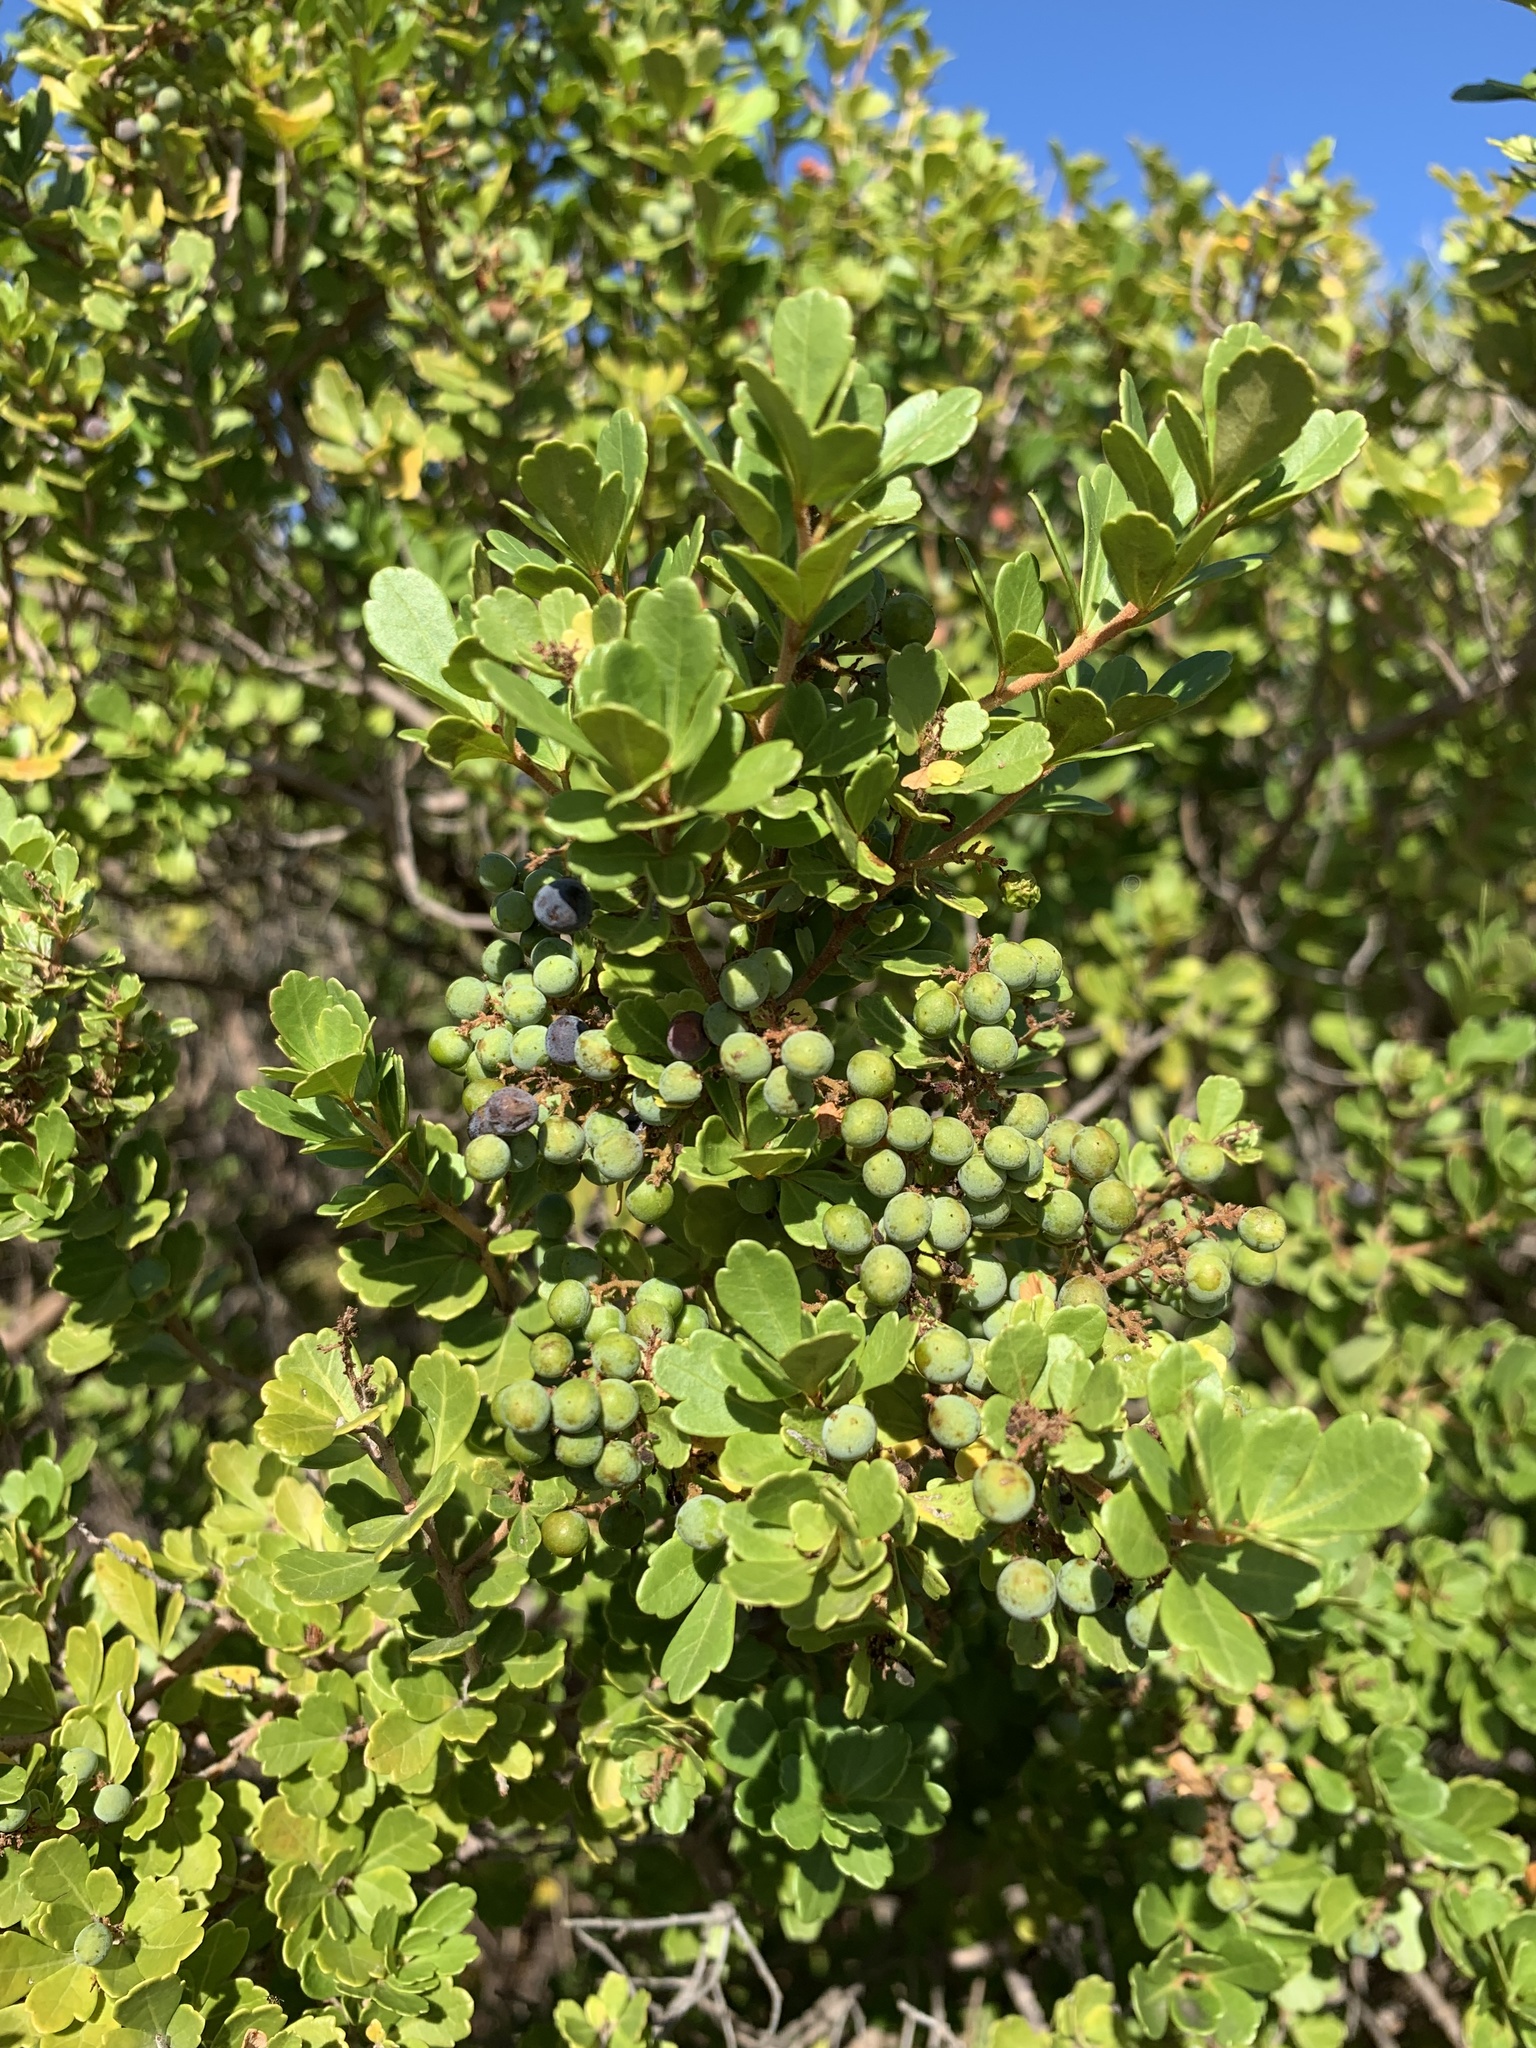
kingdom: Plantae
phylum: Tracheophyta
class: Magnoliopsida
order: Sapindales
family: Anacardiaceae
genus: Searsia
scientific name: Searsia crenata
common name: Crowberry
